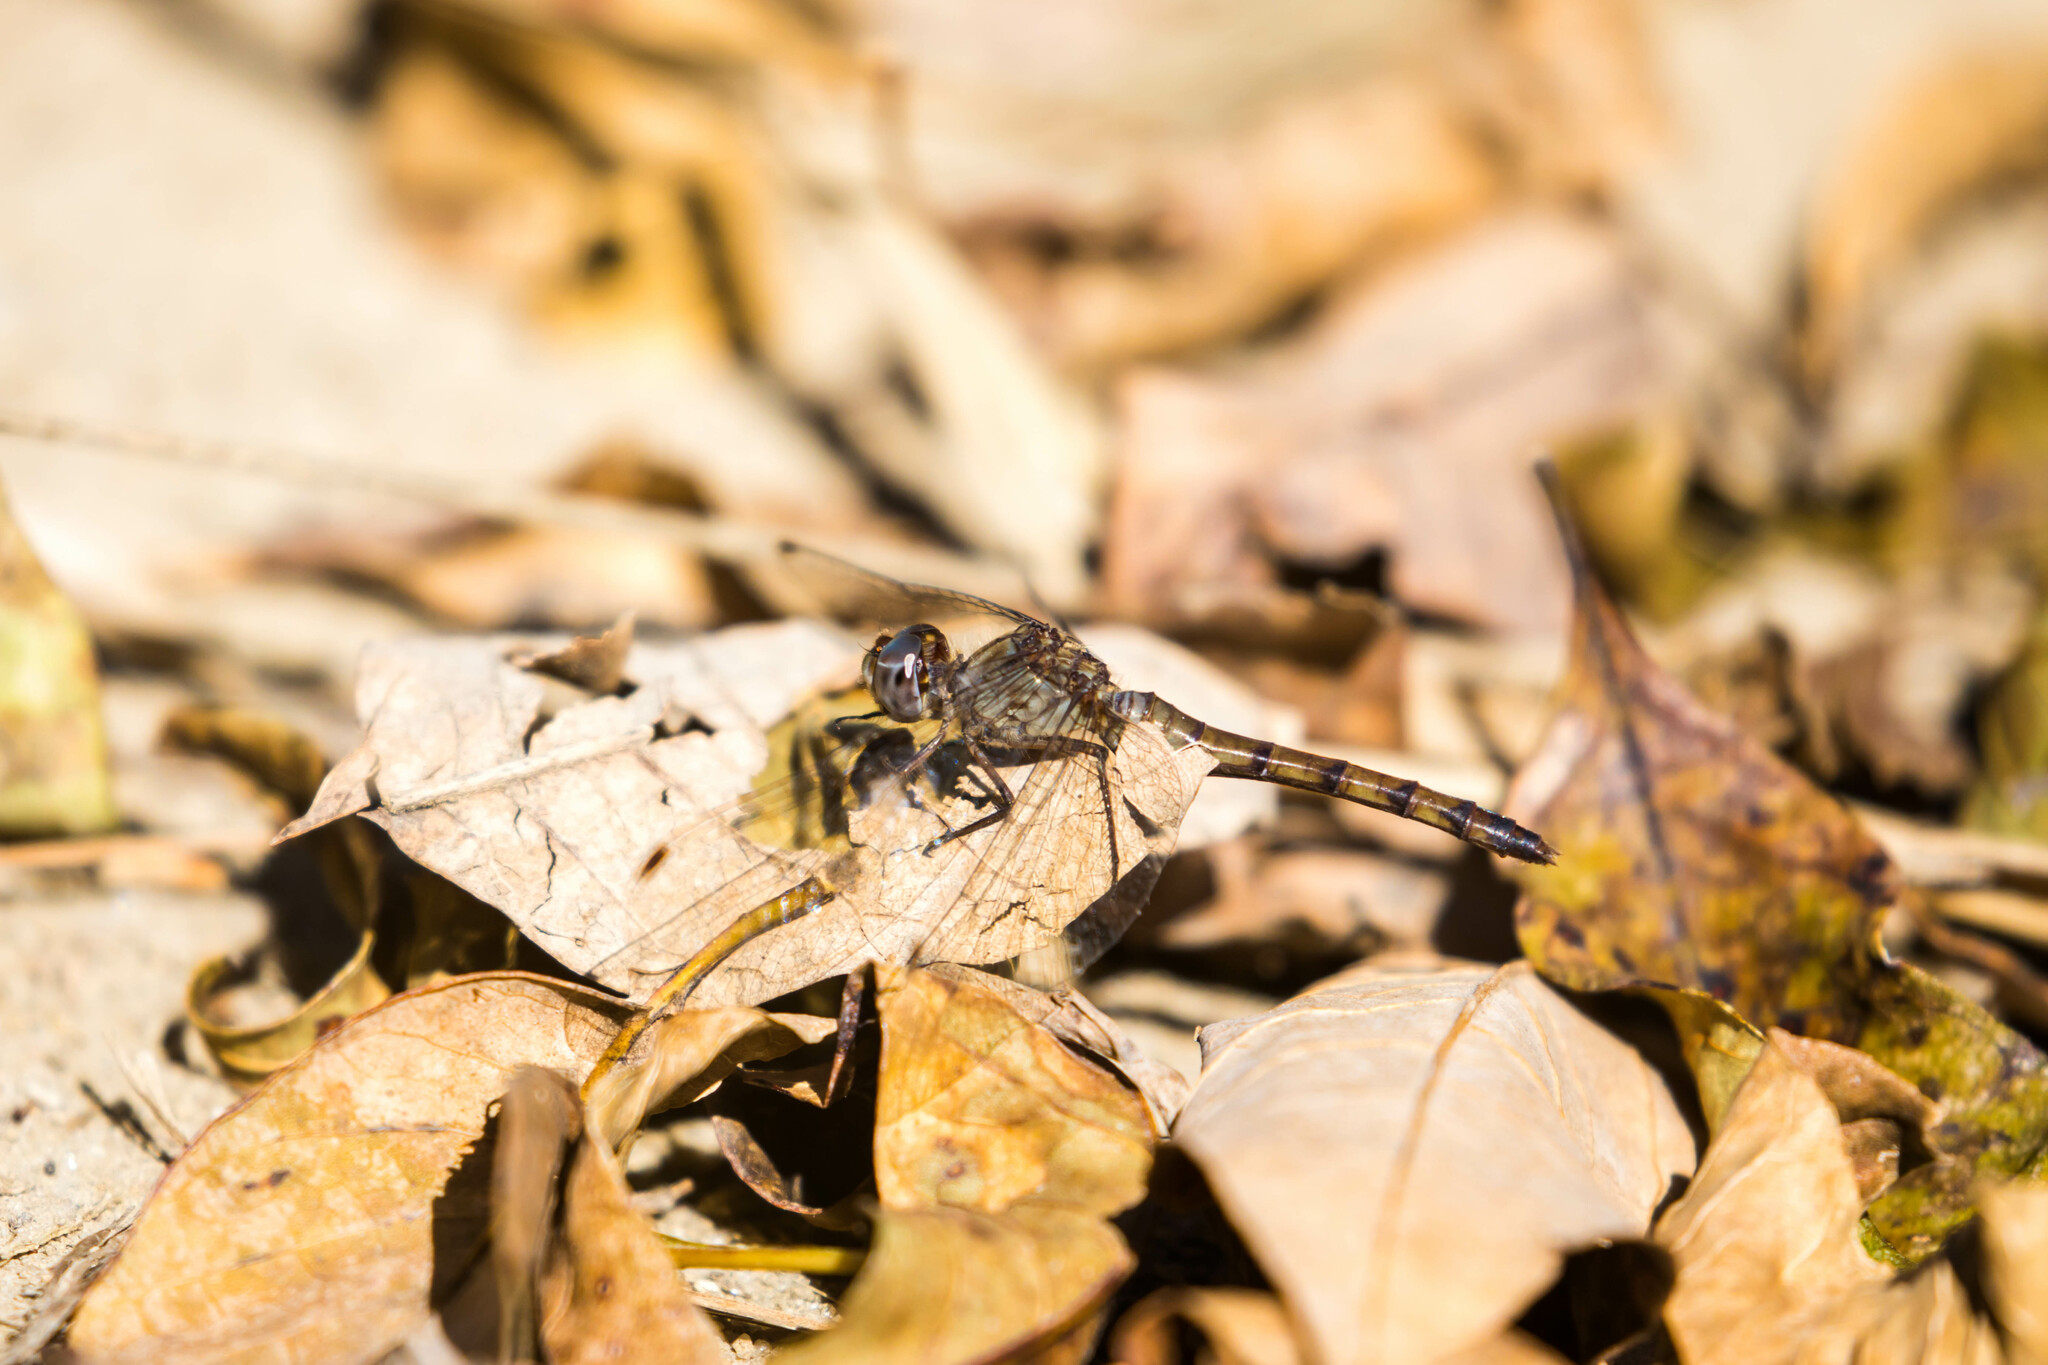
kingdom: Animalia
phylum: Arthropoda
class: Insecta
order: Odonata
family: Libellulidae
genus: Sympetrum
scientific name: Sympetrum ambiguum
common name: Blue-faced meadowhawk
